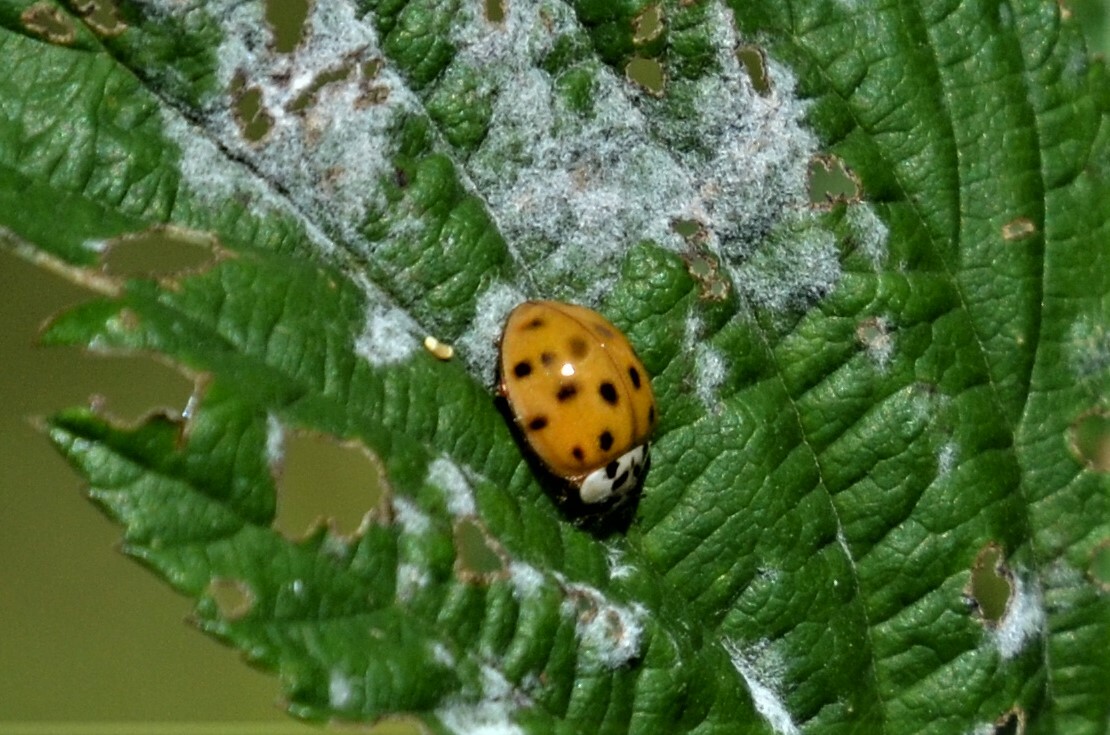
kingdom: Animalia
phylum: Arthropoda
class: Insecta
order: Coleoptera
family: Coccinellidae
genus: Harmonia
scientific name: Harmonia axyridis
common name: Harlequin ladybird
